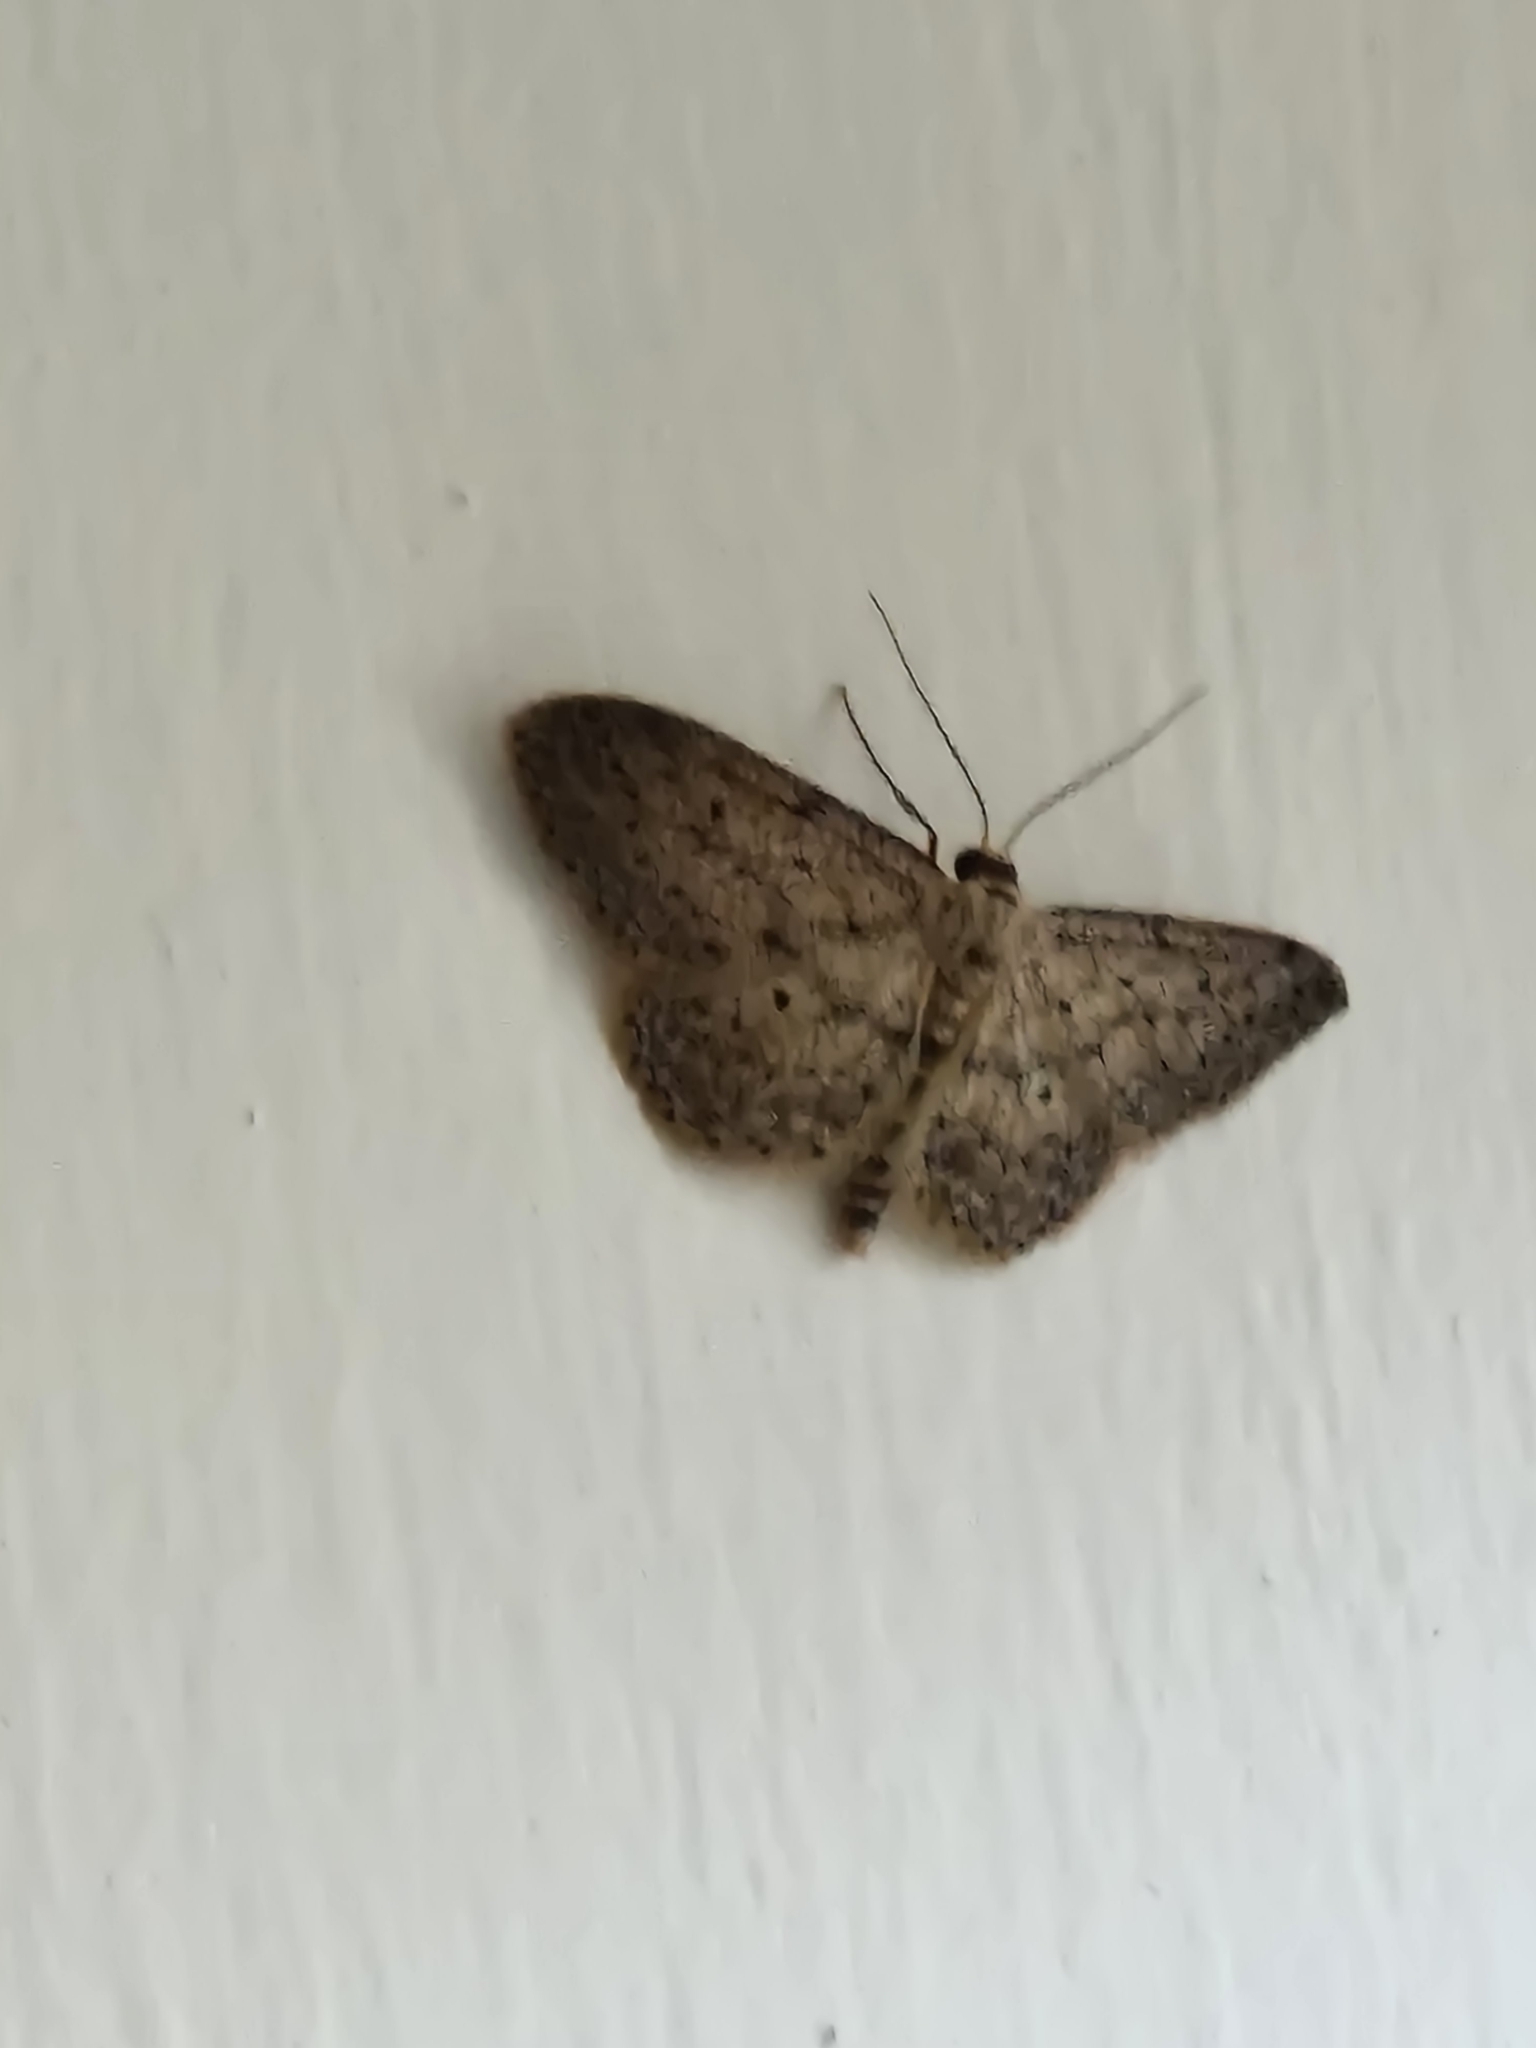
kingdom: Animalia
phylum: Arthropoda
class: Insecta
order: Lepidoptera
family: Geometridae
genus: Idaea
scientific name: Idaea seriata
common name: Small dusty wave
